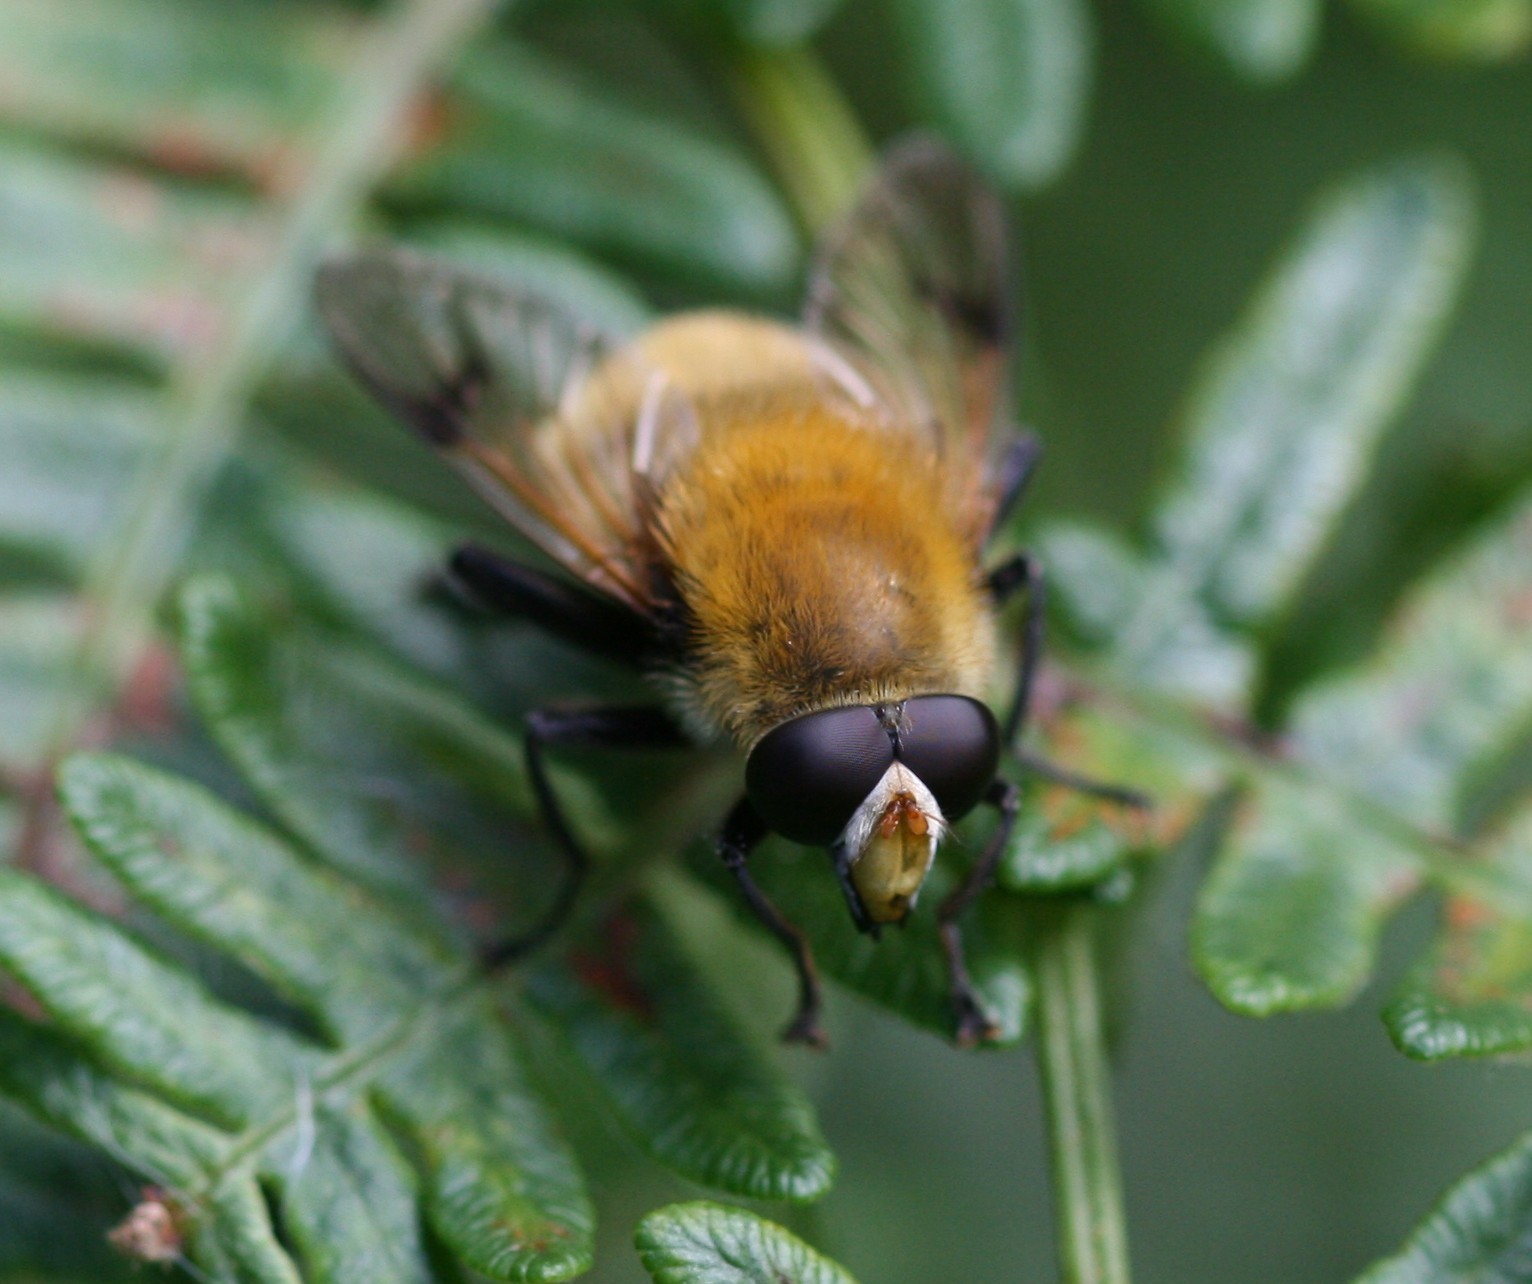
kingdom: Animalia
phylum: Arthropoda
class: Insecta
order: Diptera
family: Syrphidae
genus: Sericomyia
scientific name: Sericomyia superbiens
